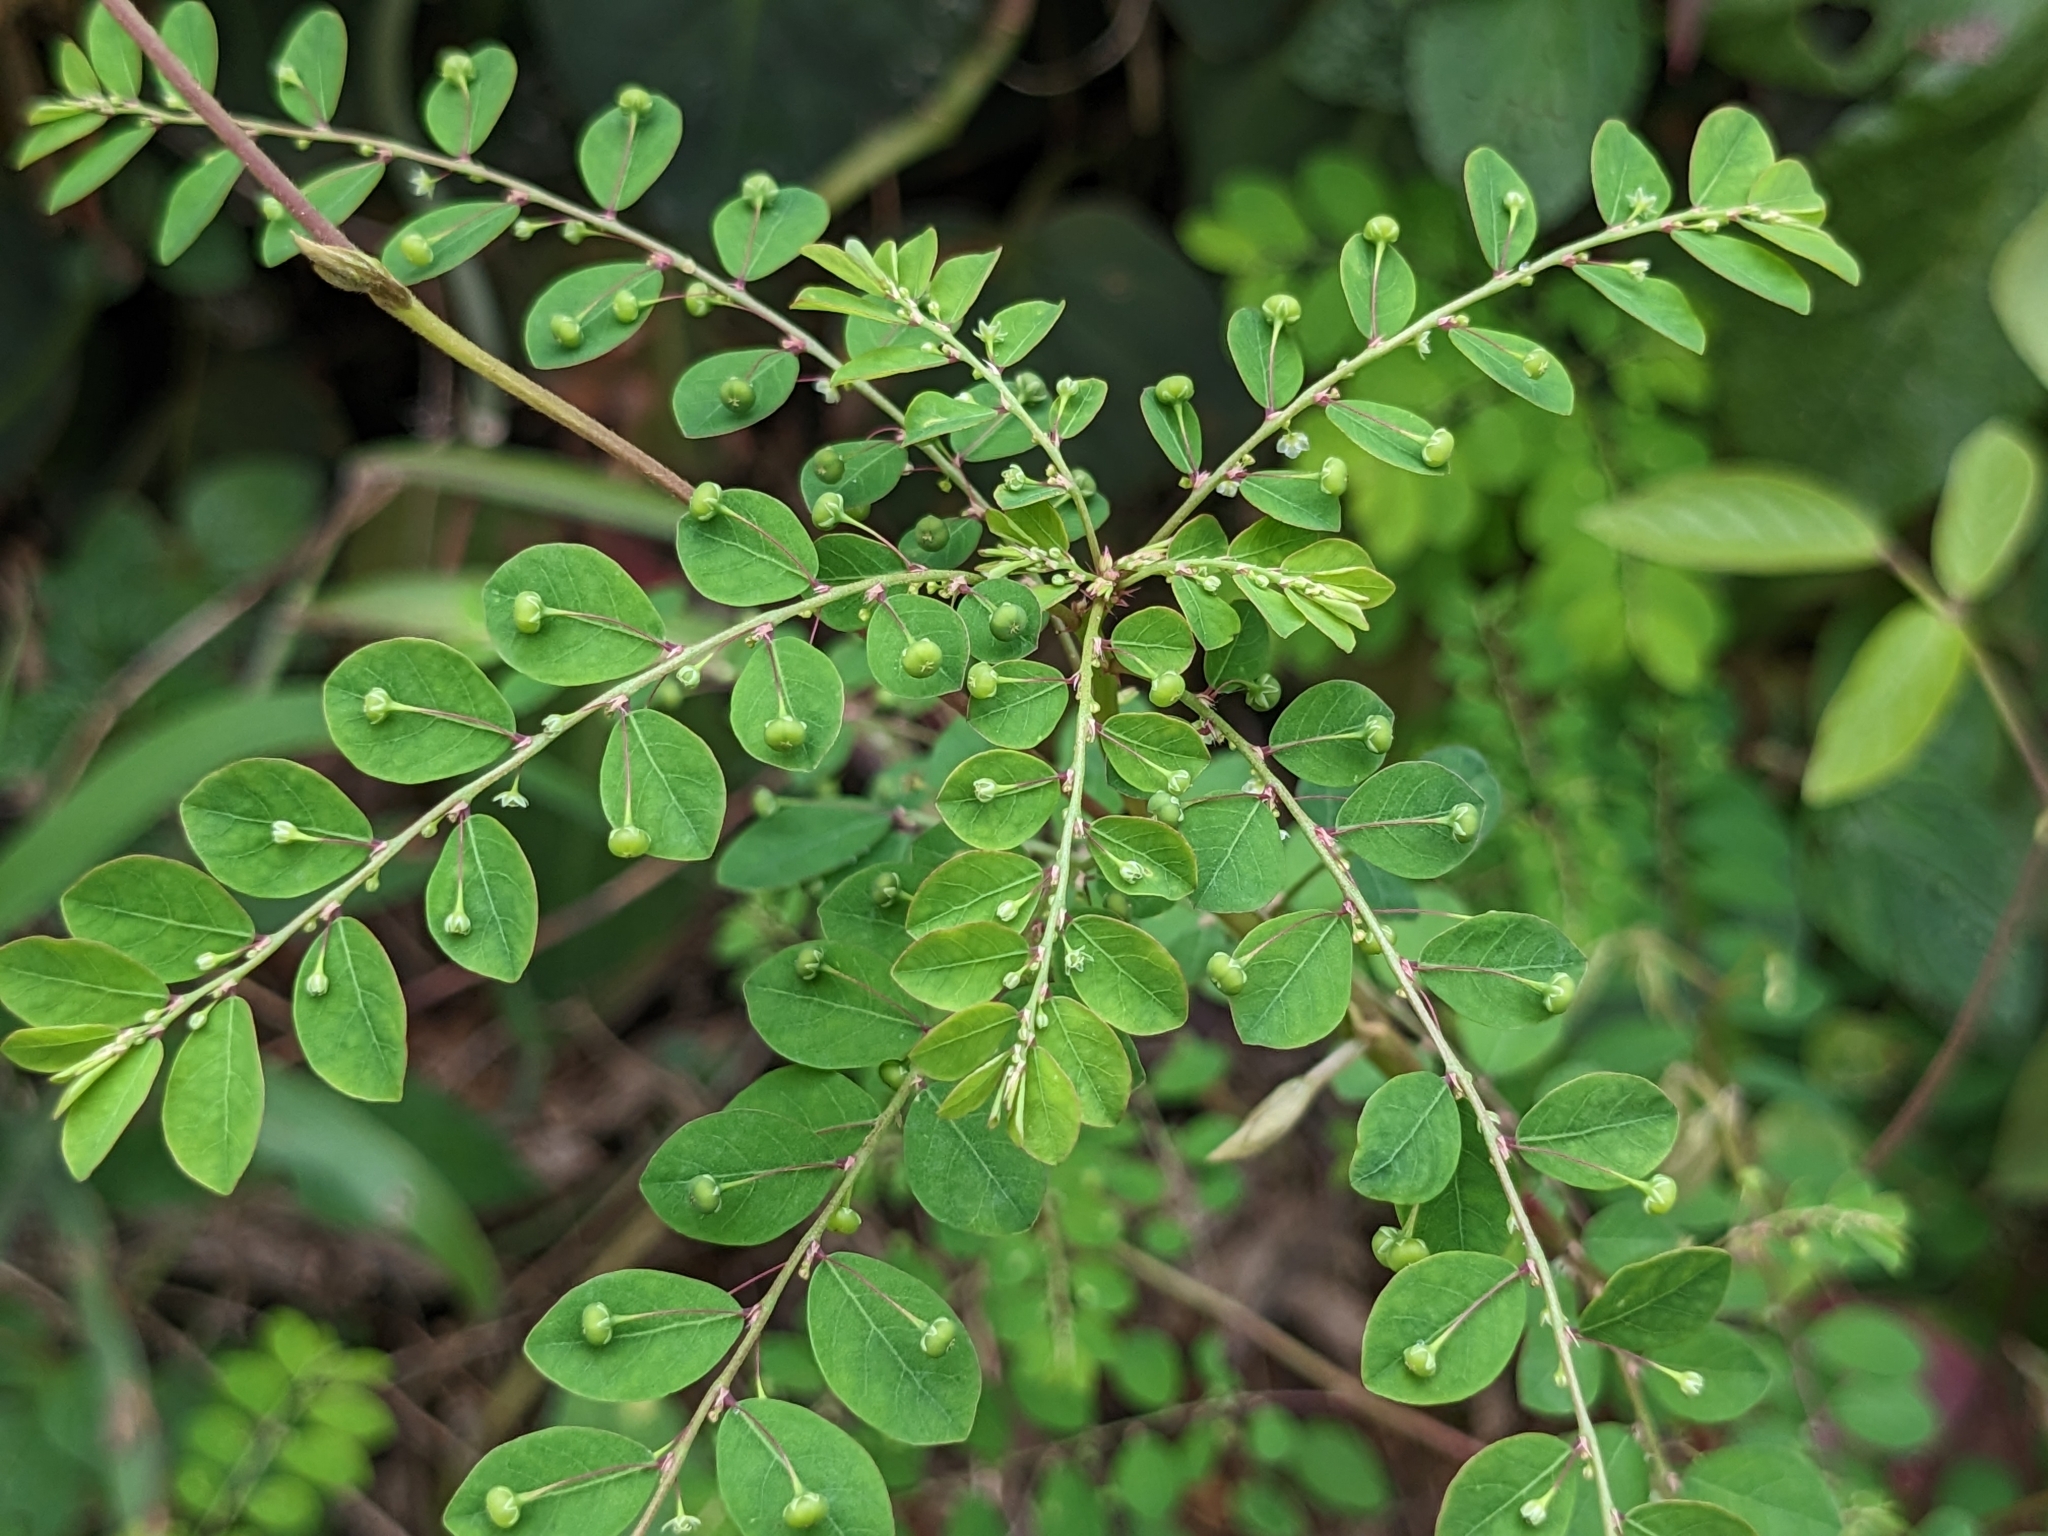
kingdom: Plantae
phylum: Tracheophyta
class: Magnoliopsida
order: Malpighiales
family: Phyllanthaceae
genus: Phyllanthus
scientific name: Phyllanthus tenellus
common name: Mascarene island leaf-flower
